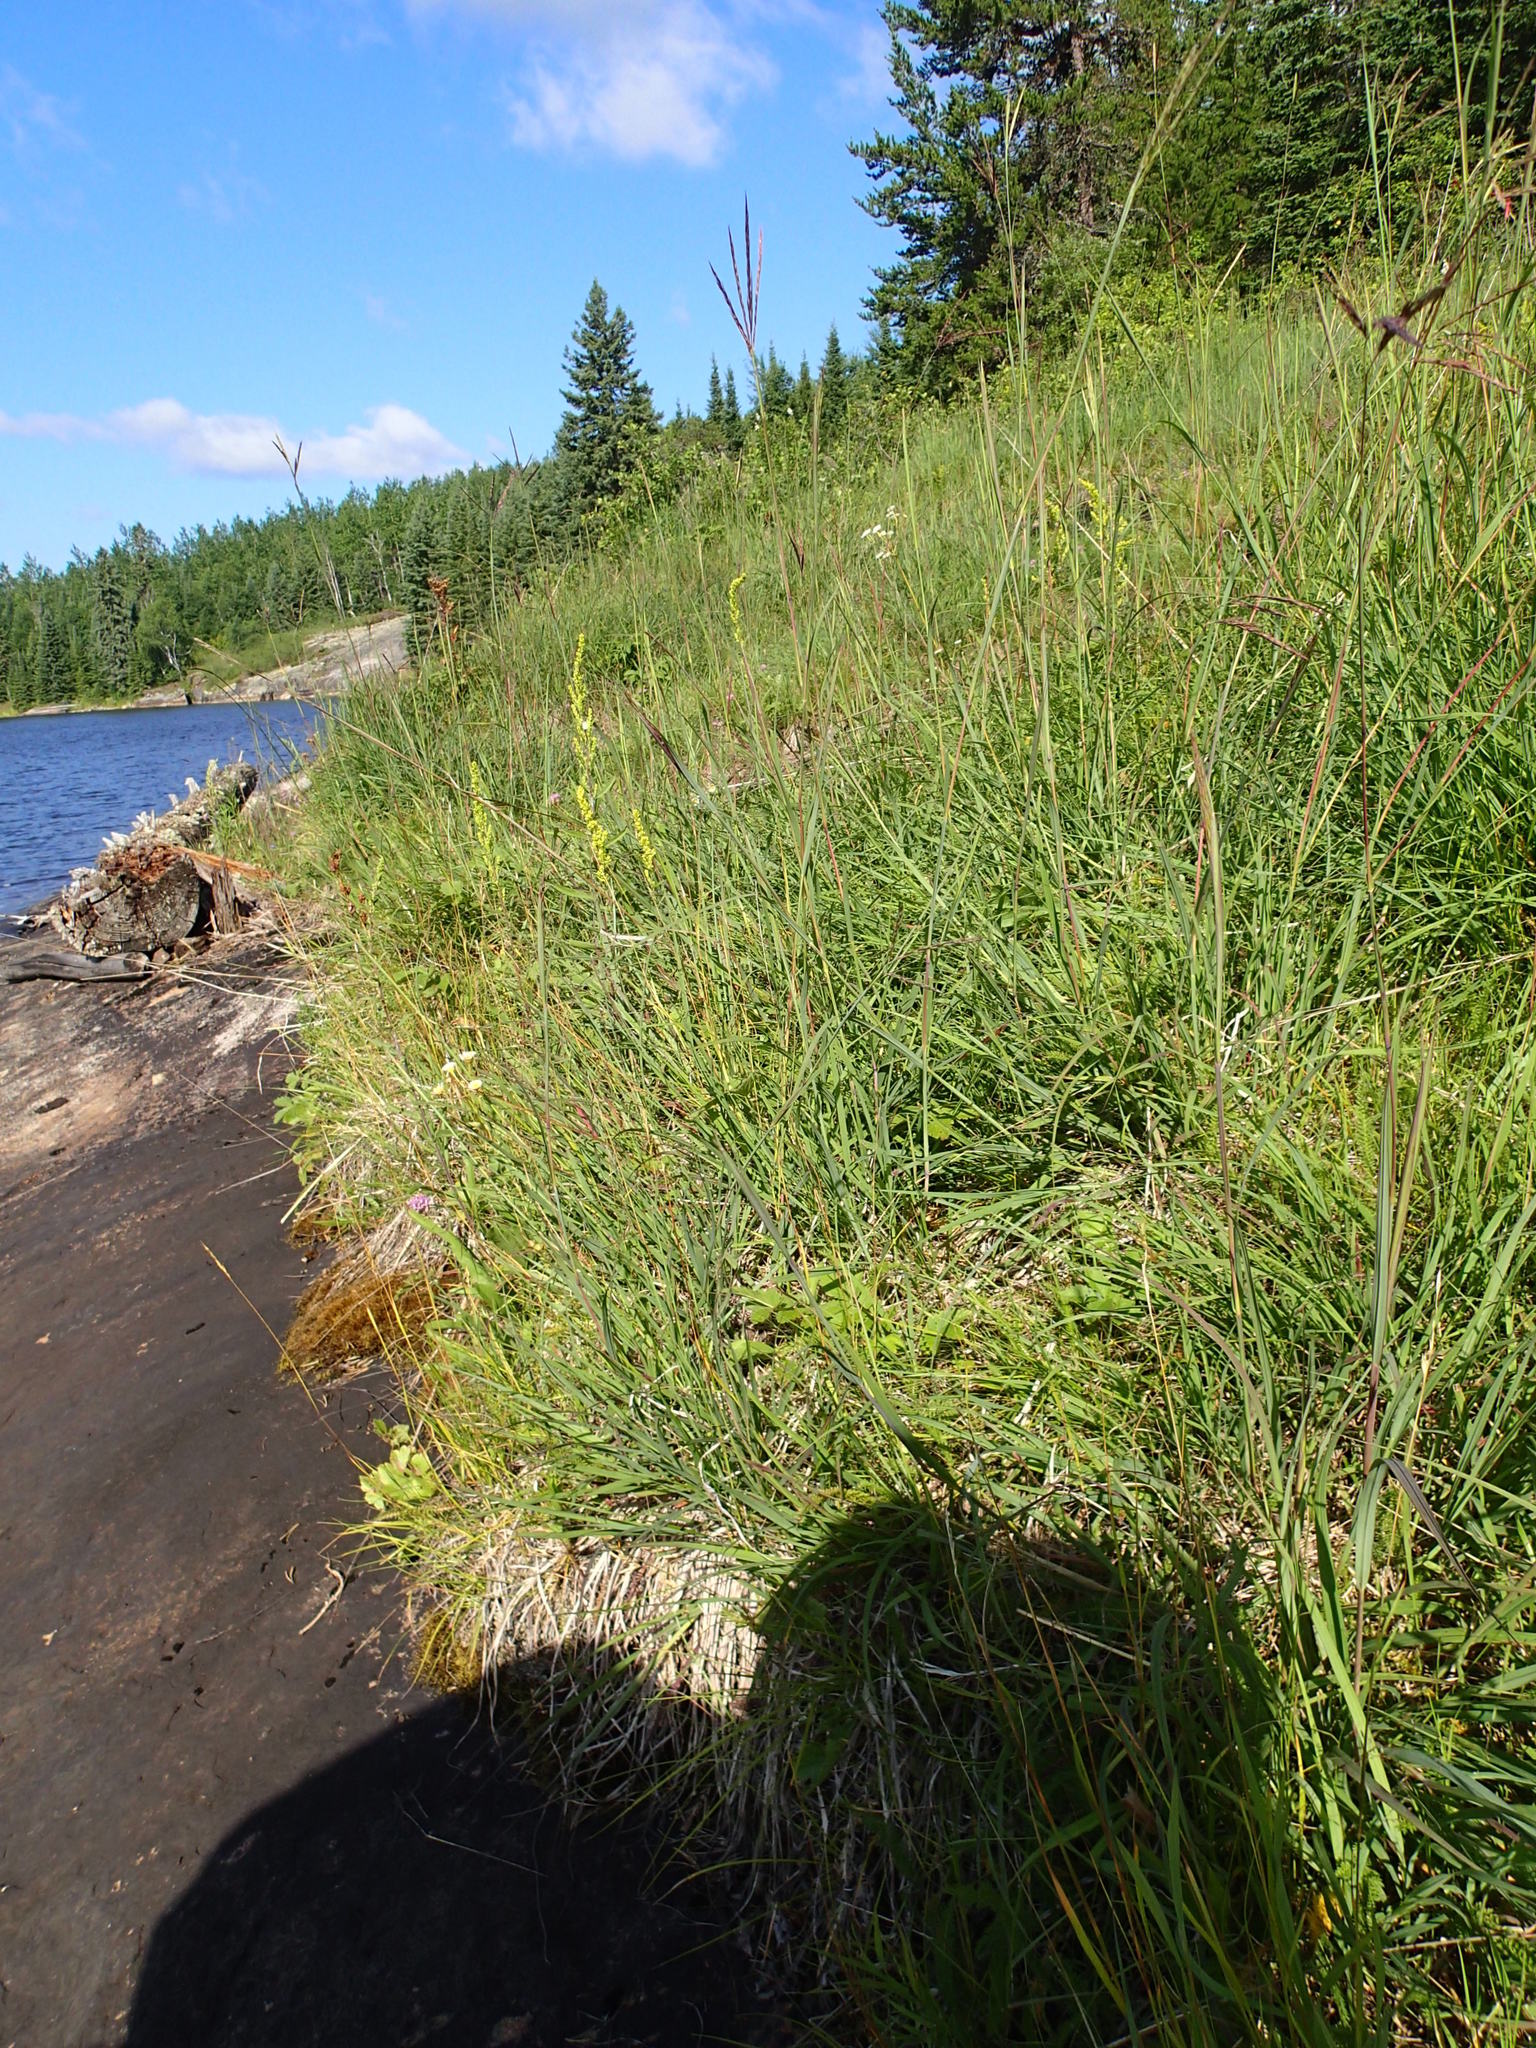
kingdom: Plantae
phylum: Tracheophyta
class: Liliopsida
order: Poales
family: Poaceae
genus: Andropogon
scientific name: Andropogon gerardi
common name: Big bluestem
